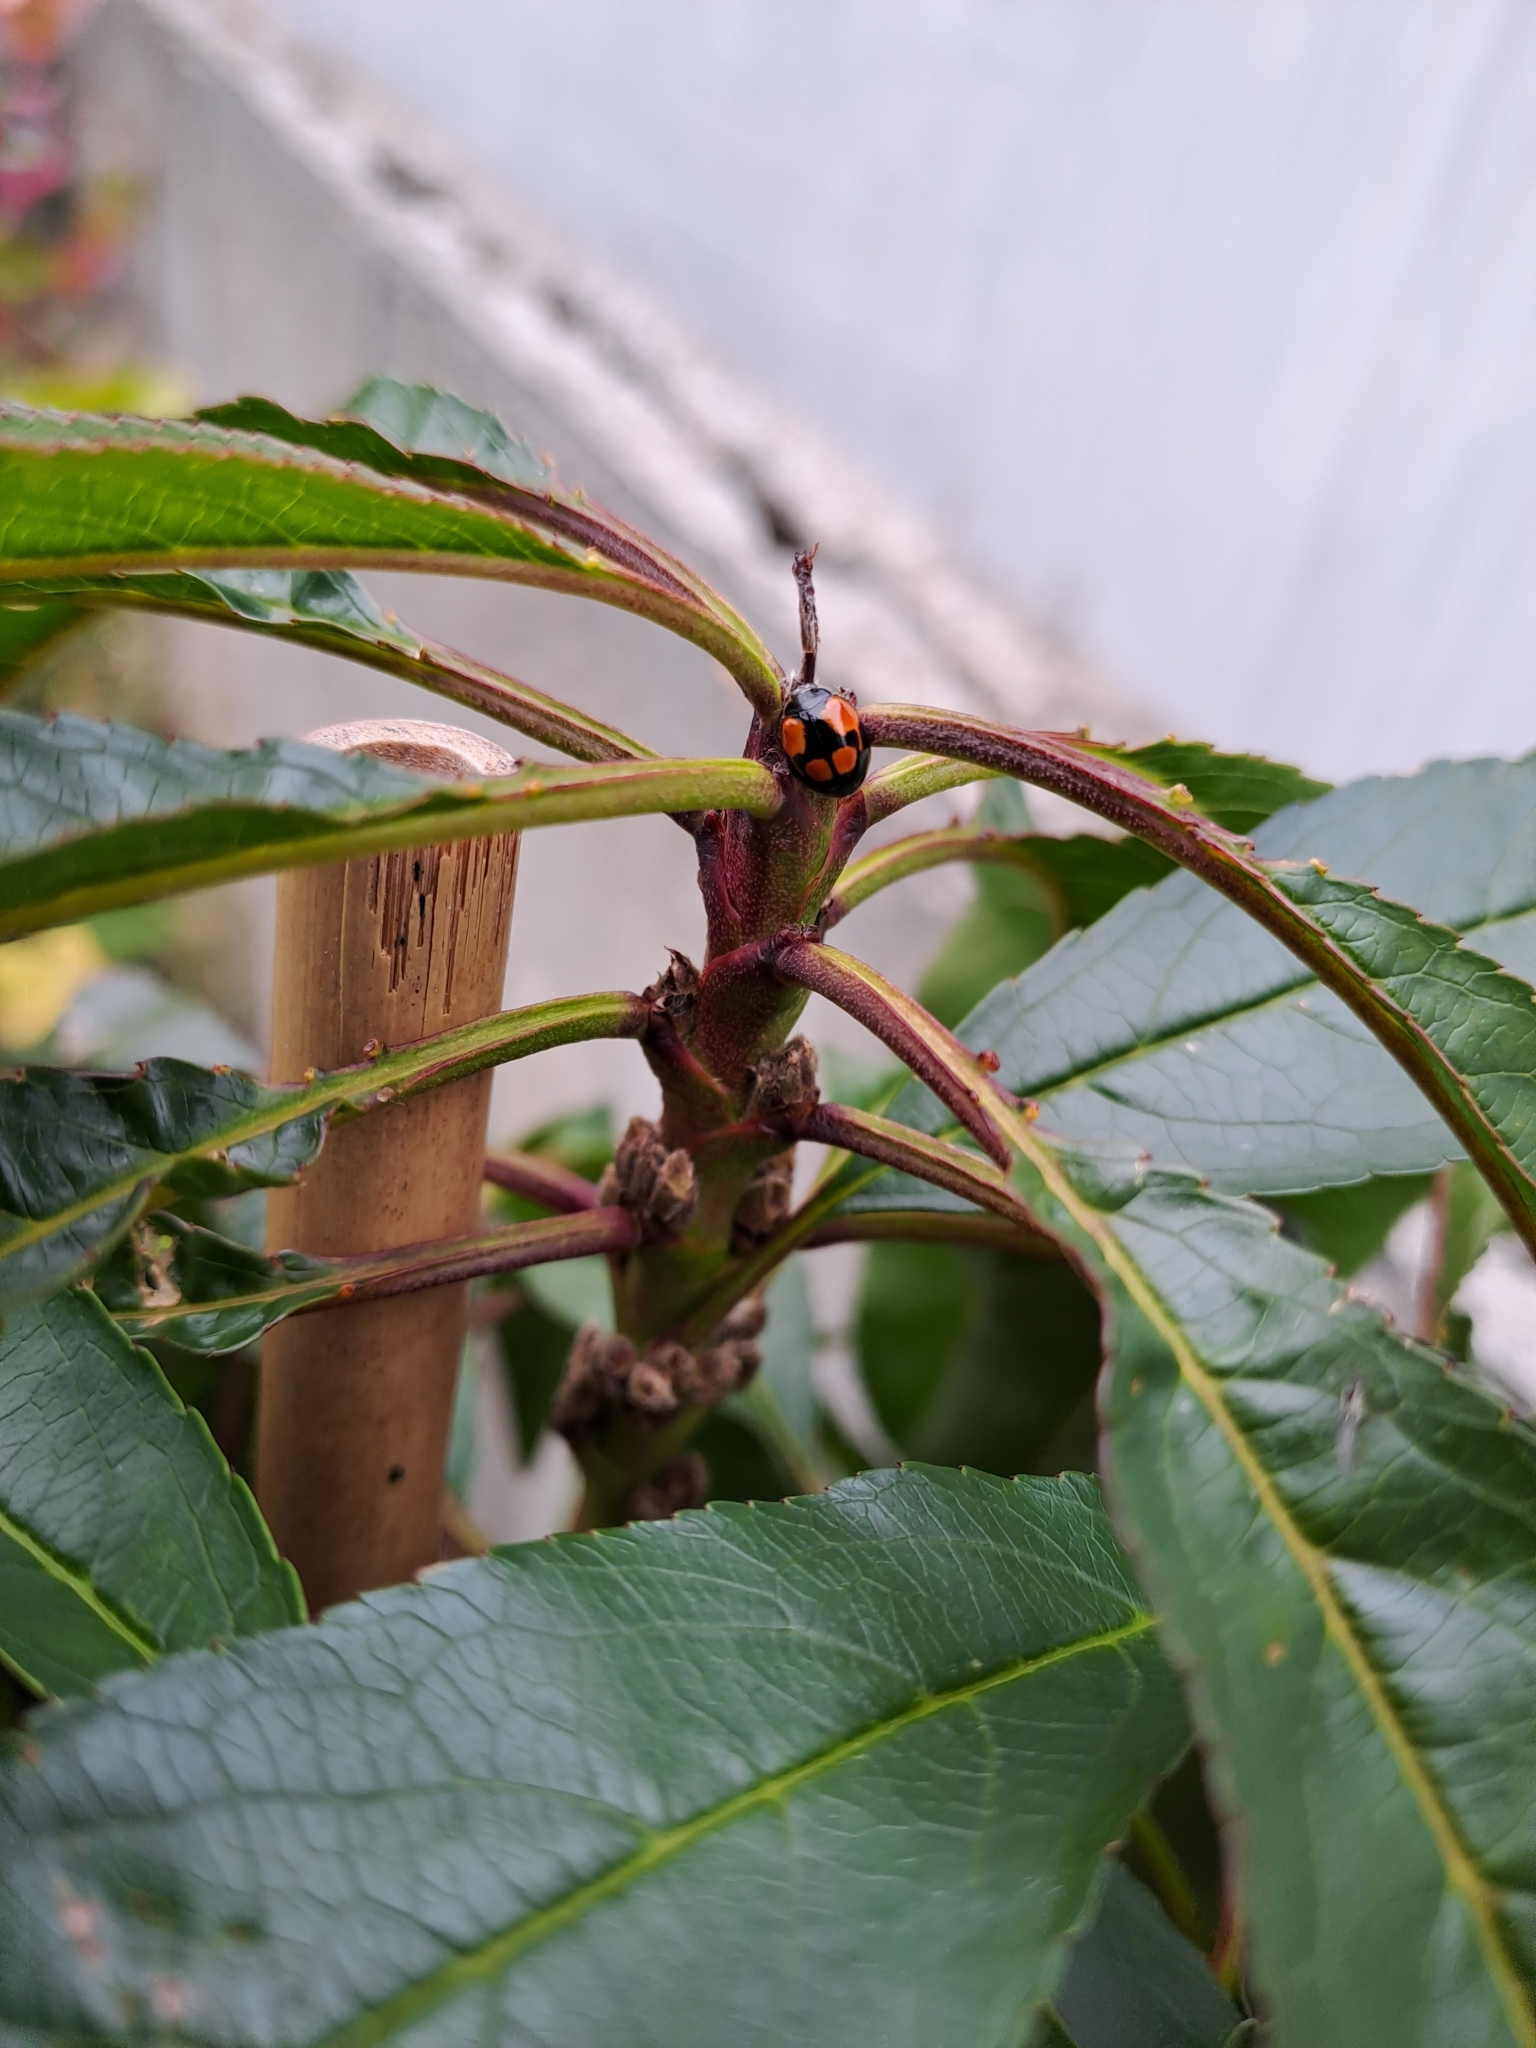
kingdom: Animalia
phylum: Arthropoda
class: Insecta
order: Coleoptera
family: Coccinellidae
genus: Adalia
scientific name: Adalia bipunctata
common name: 2-spot ladybird
